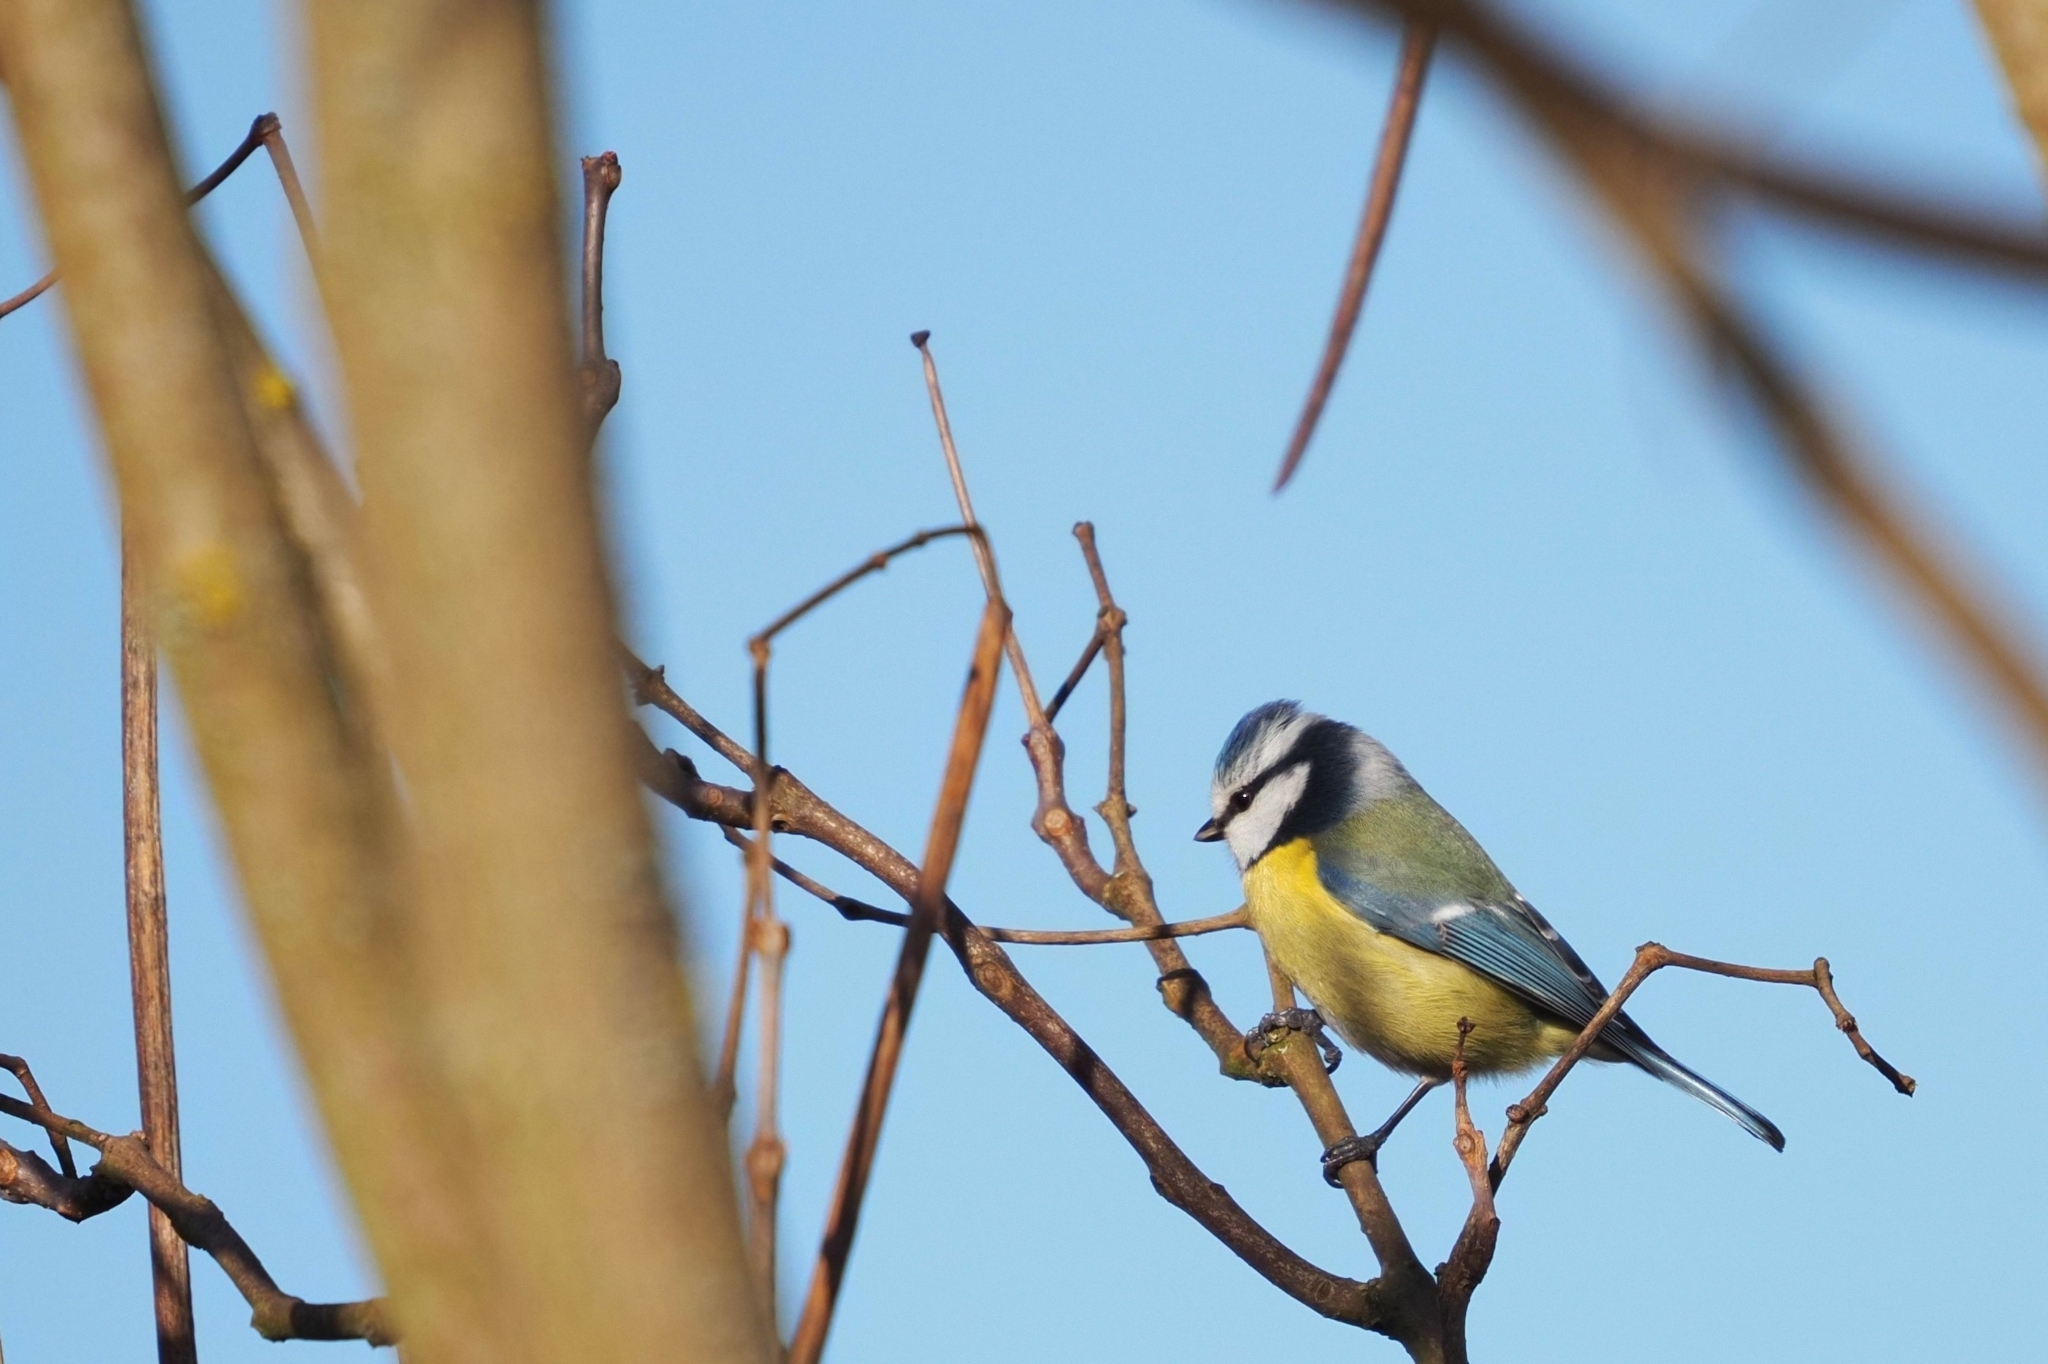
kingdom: Animalia
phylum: Chordata
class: Aves
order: Passeriformes
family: Paridae
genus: Cyanistes
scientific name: Cyanistes caeruleus
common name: Eurasian blue tit
